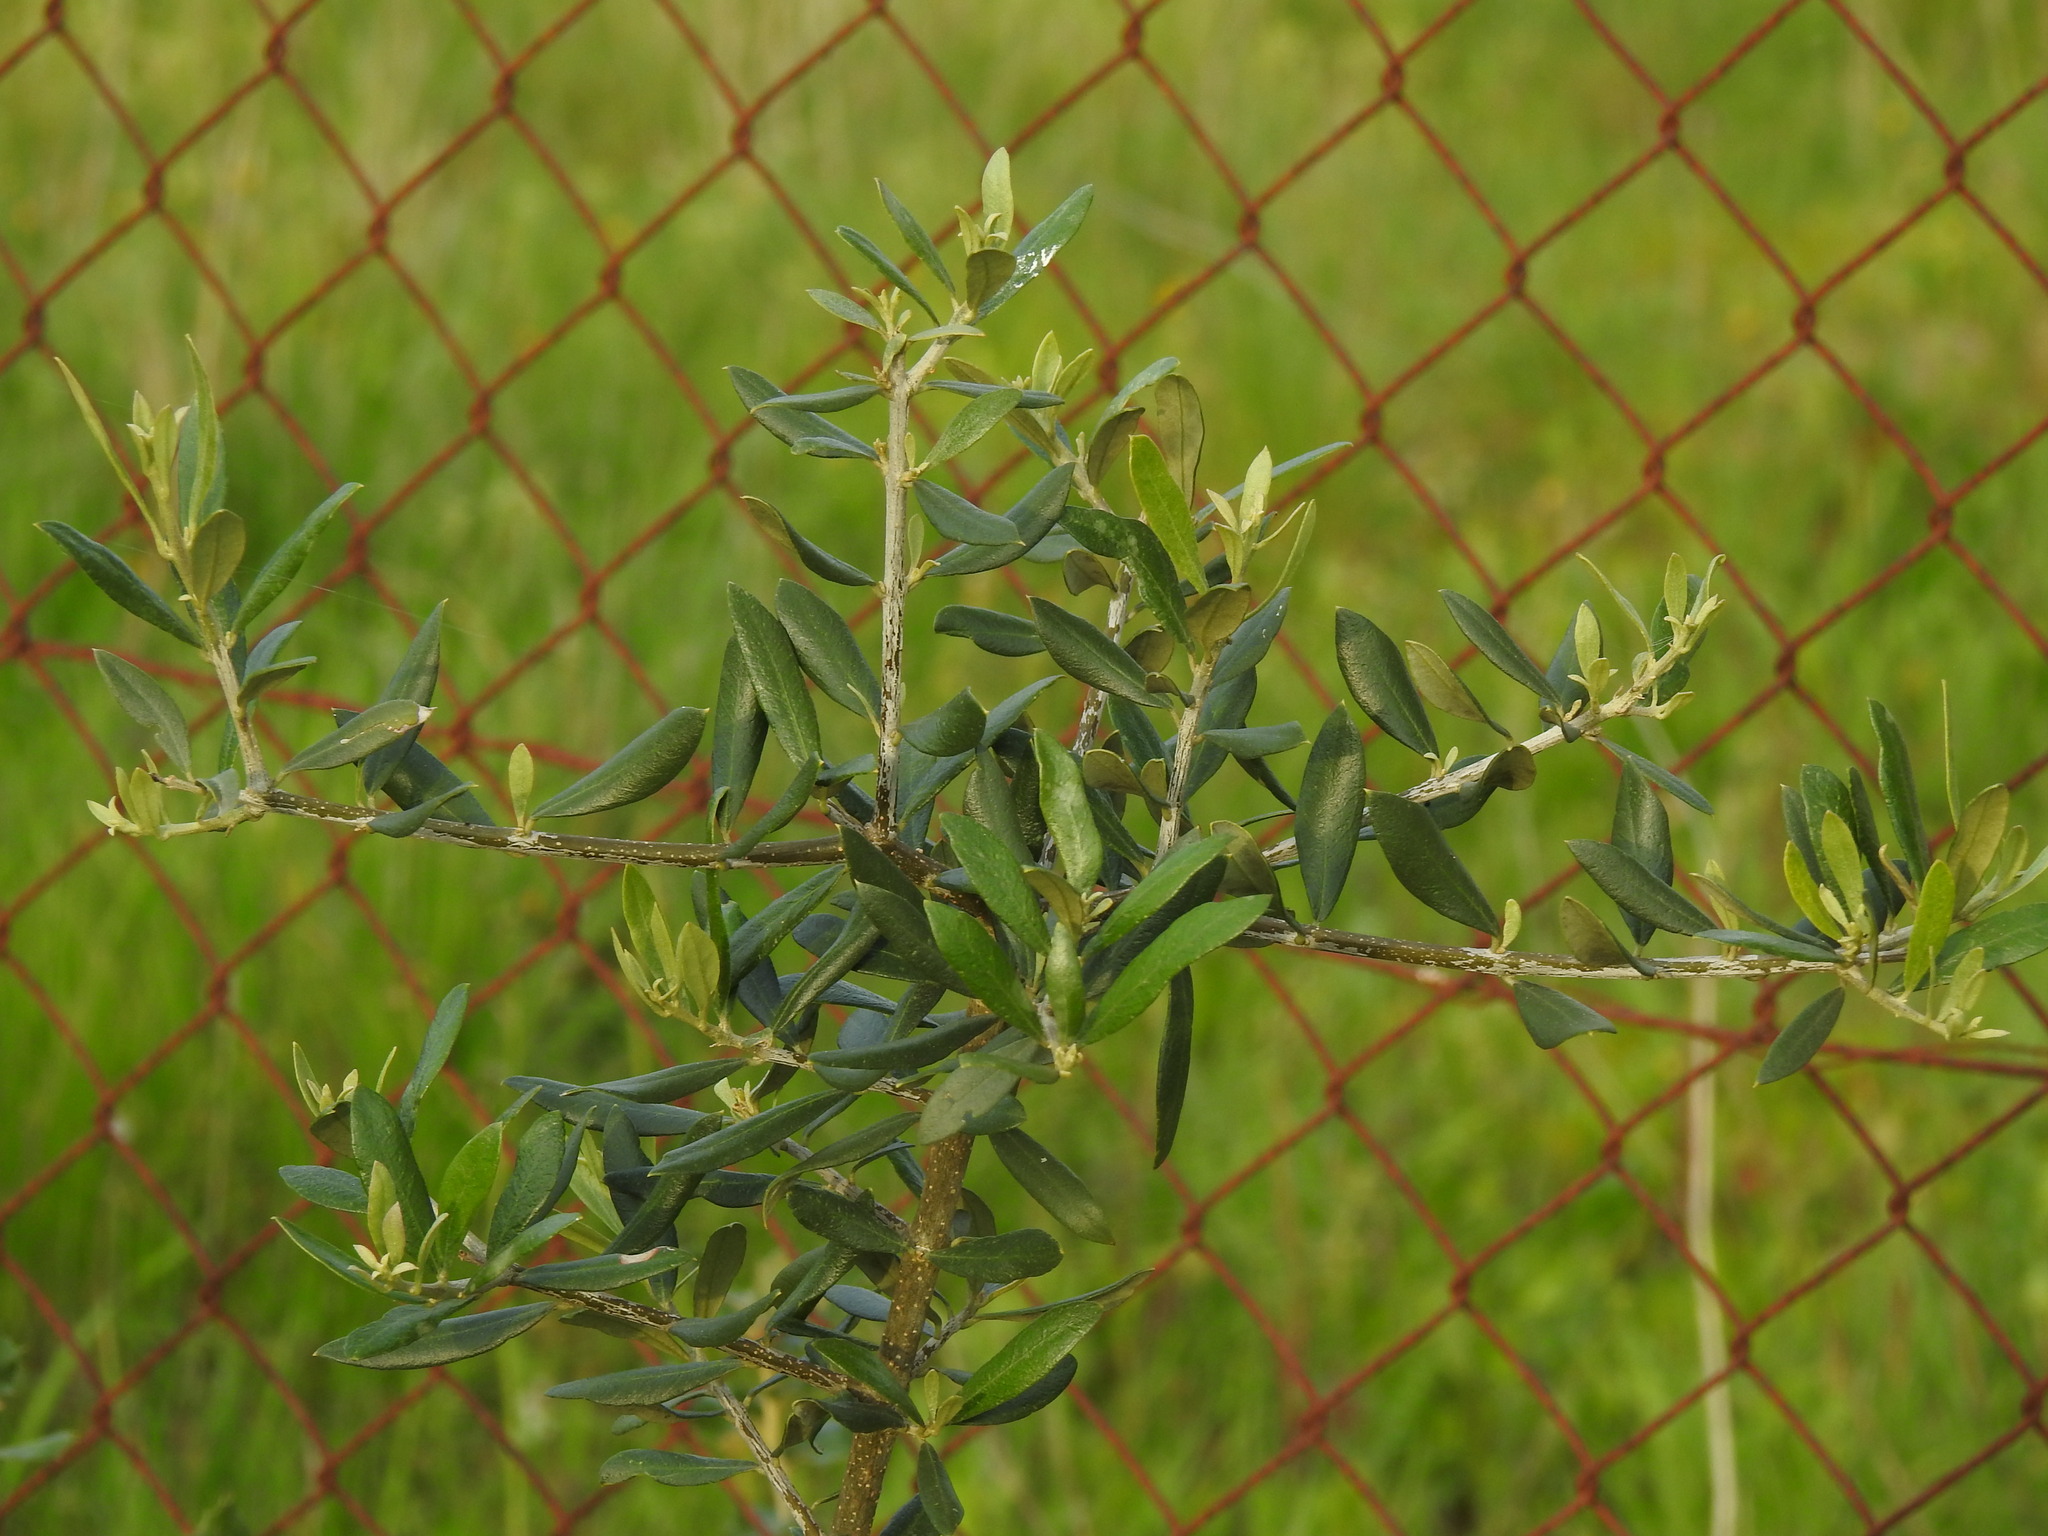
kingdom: Plantae
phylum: Tracheophyta
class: Magnoliopsida
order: Lamiales
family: Oleaceae
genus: Olea
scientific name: Olea europaea
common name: Olive
